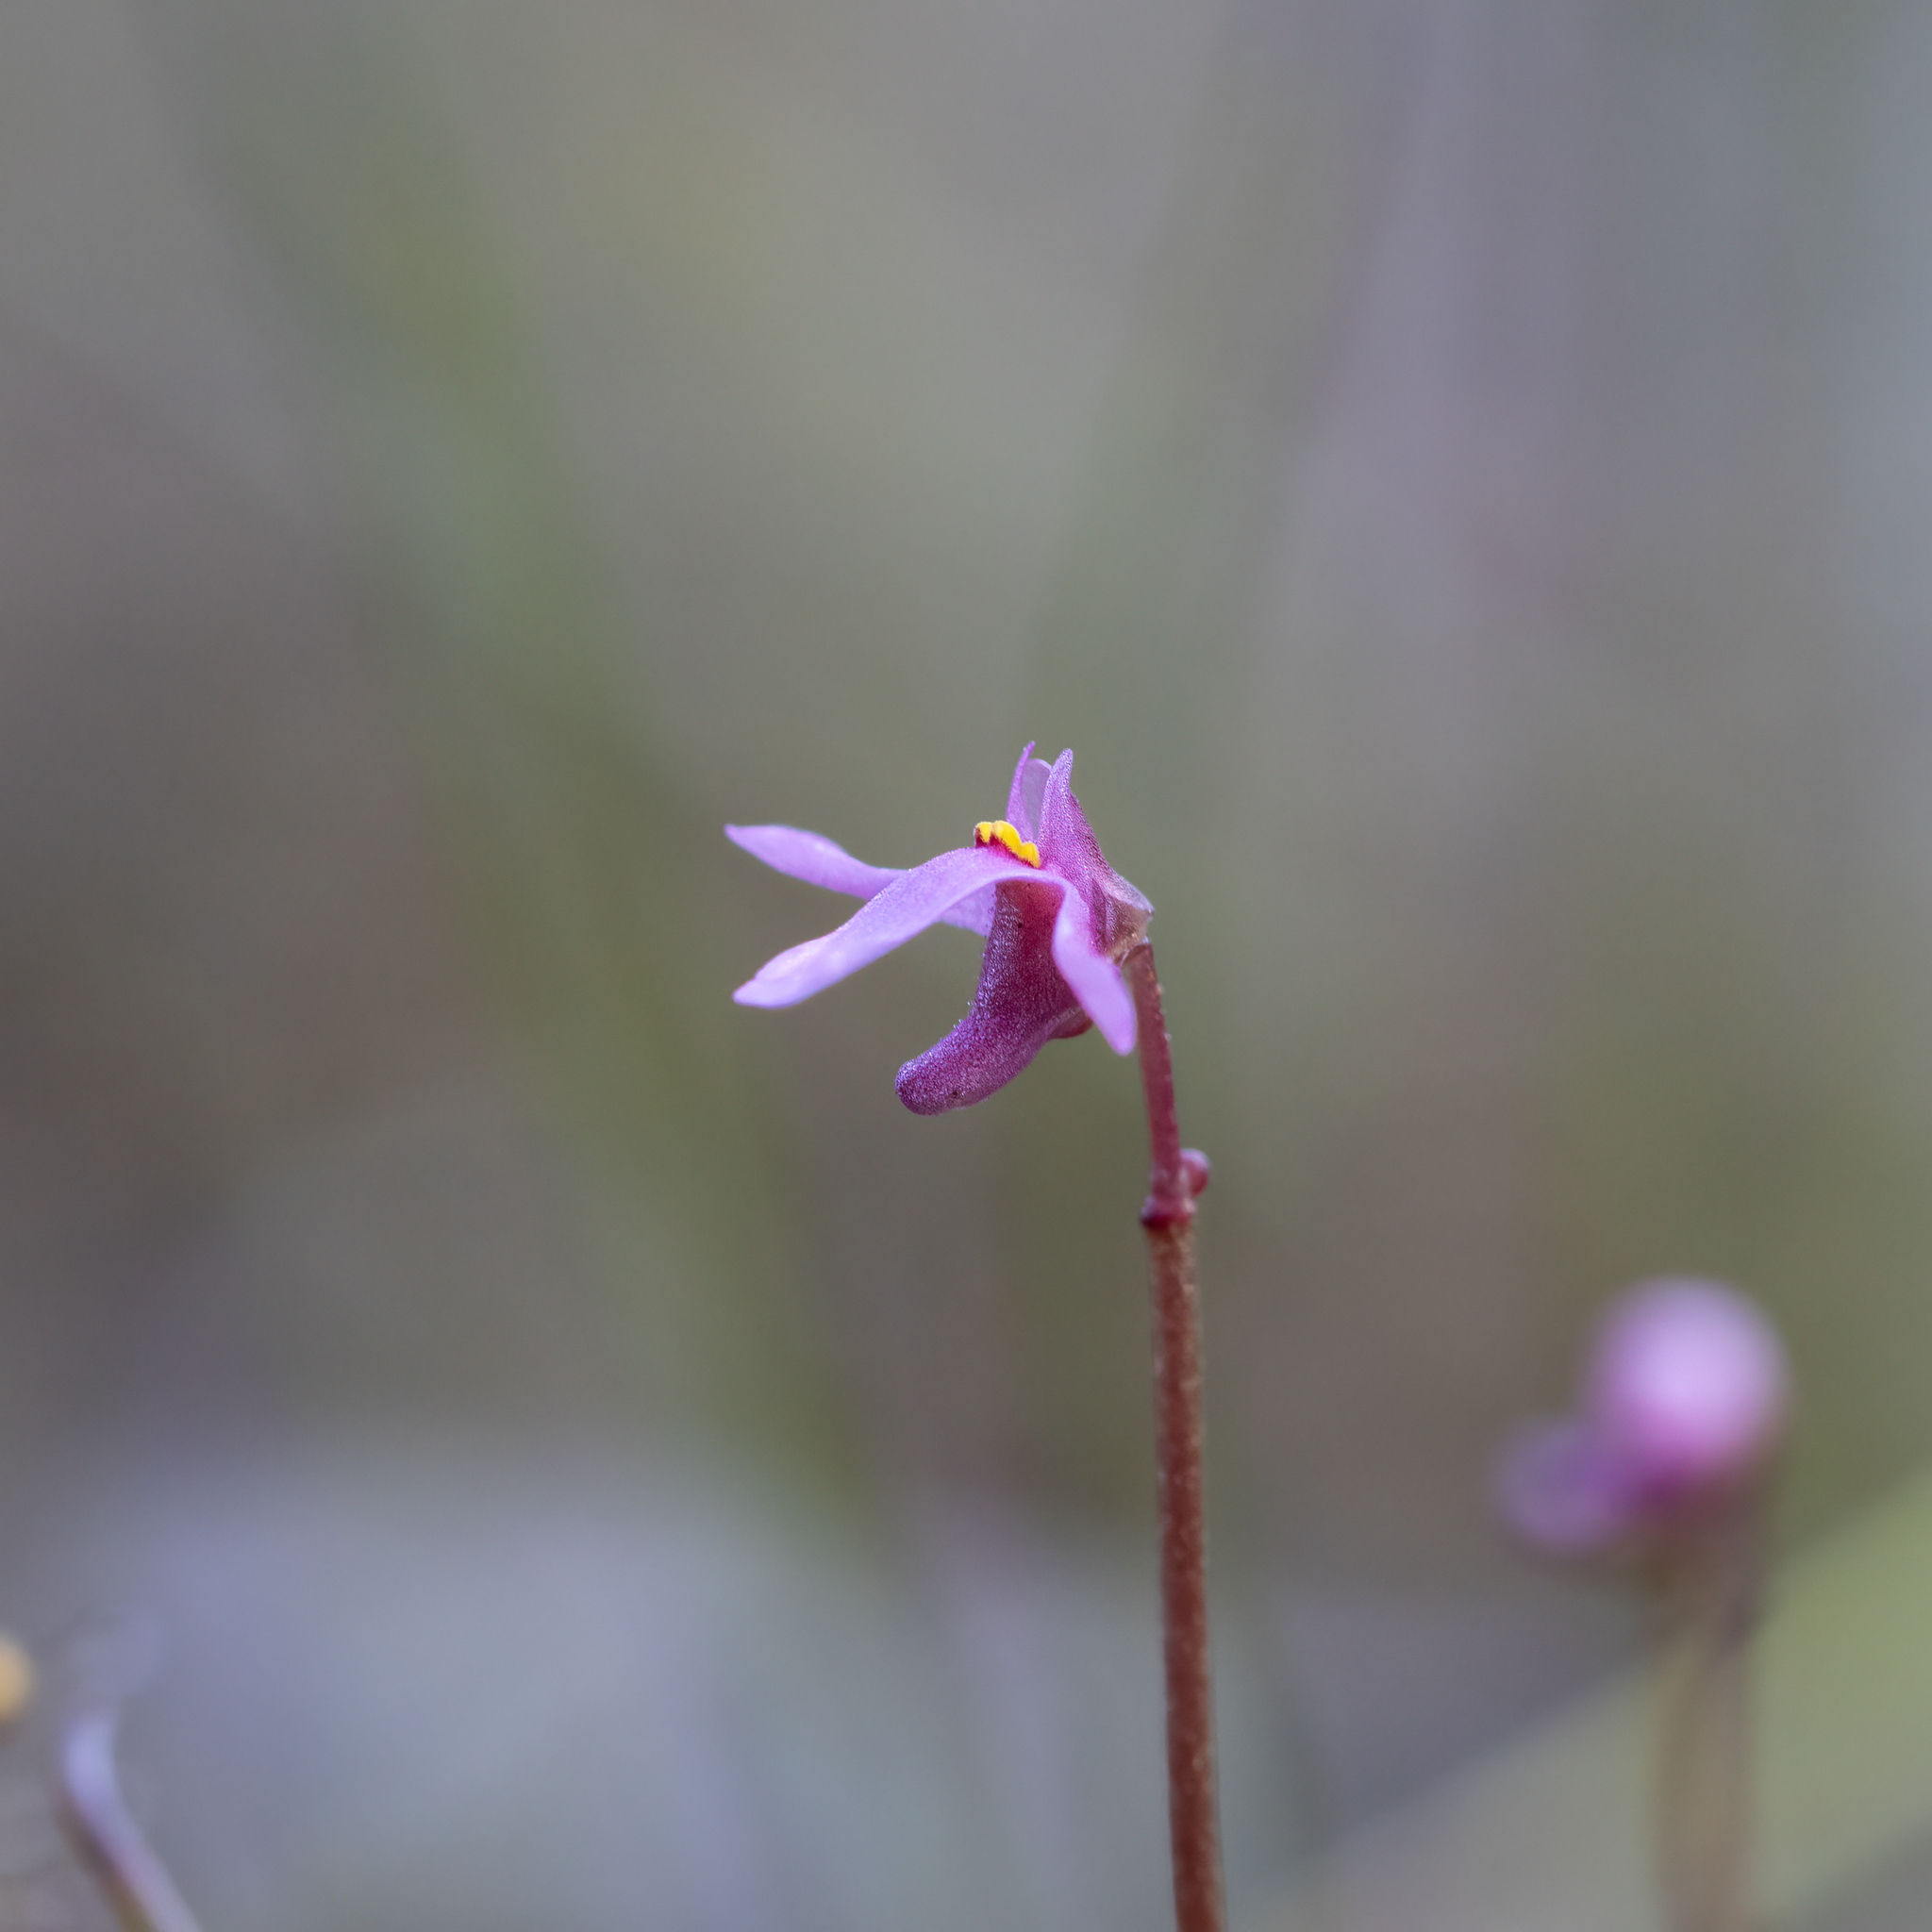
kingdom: Plantae
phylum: Tracheophyta
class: Magnoliopsida
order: Lamiales
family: Lentibulariaceae
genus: Utricularia
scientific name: Utricularia tenella
